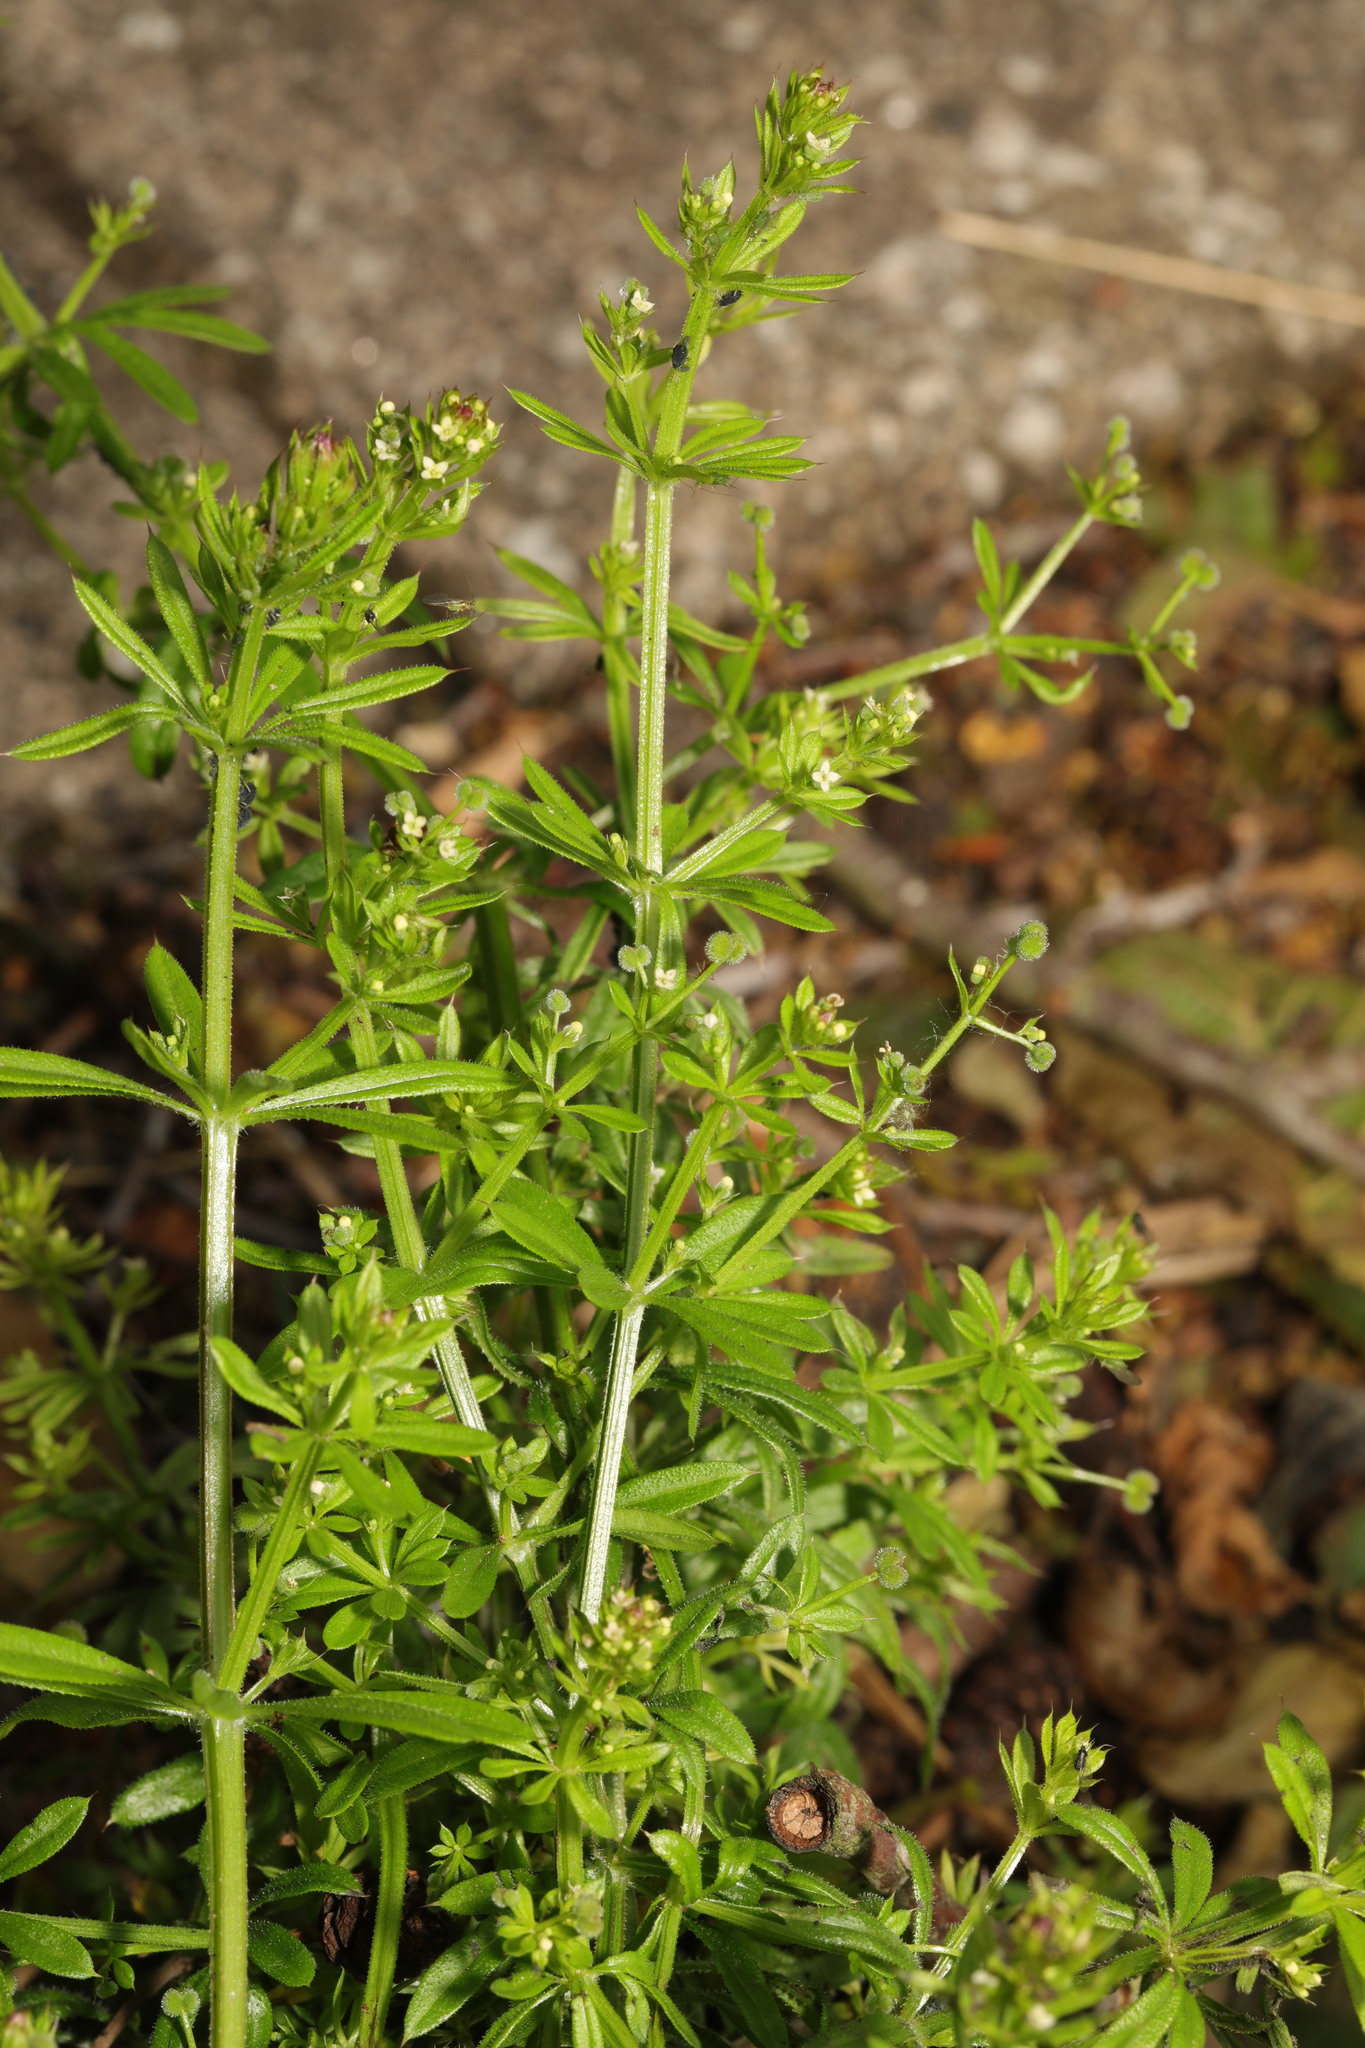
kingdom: Plantae
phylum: Tracheophyta
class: Magnoliopsida
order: Gentianales
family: Rubiaceae
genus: Galium
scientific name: Galium aparine
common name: Cleavers
